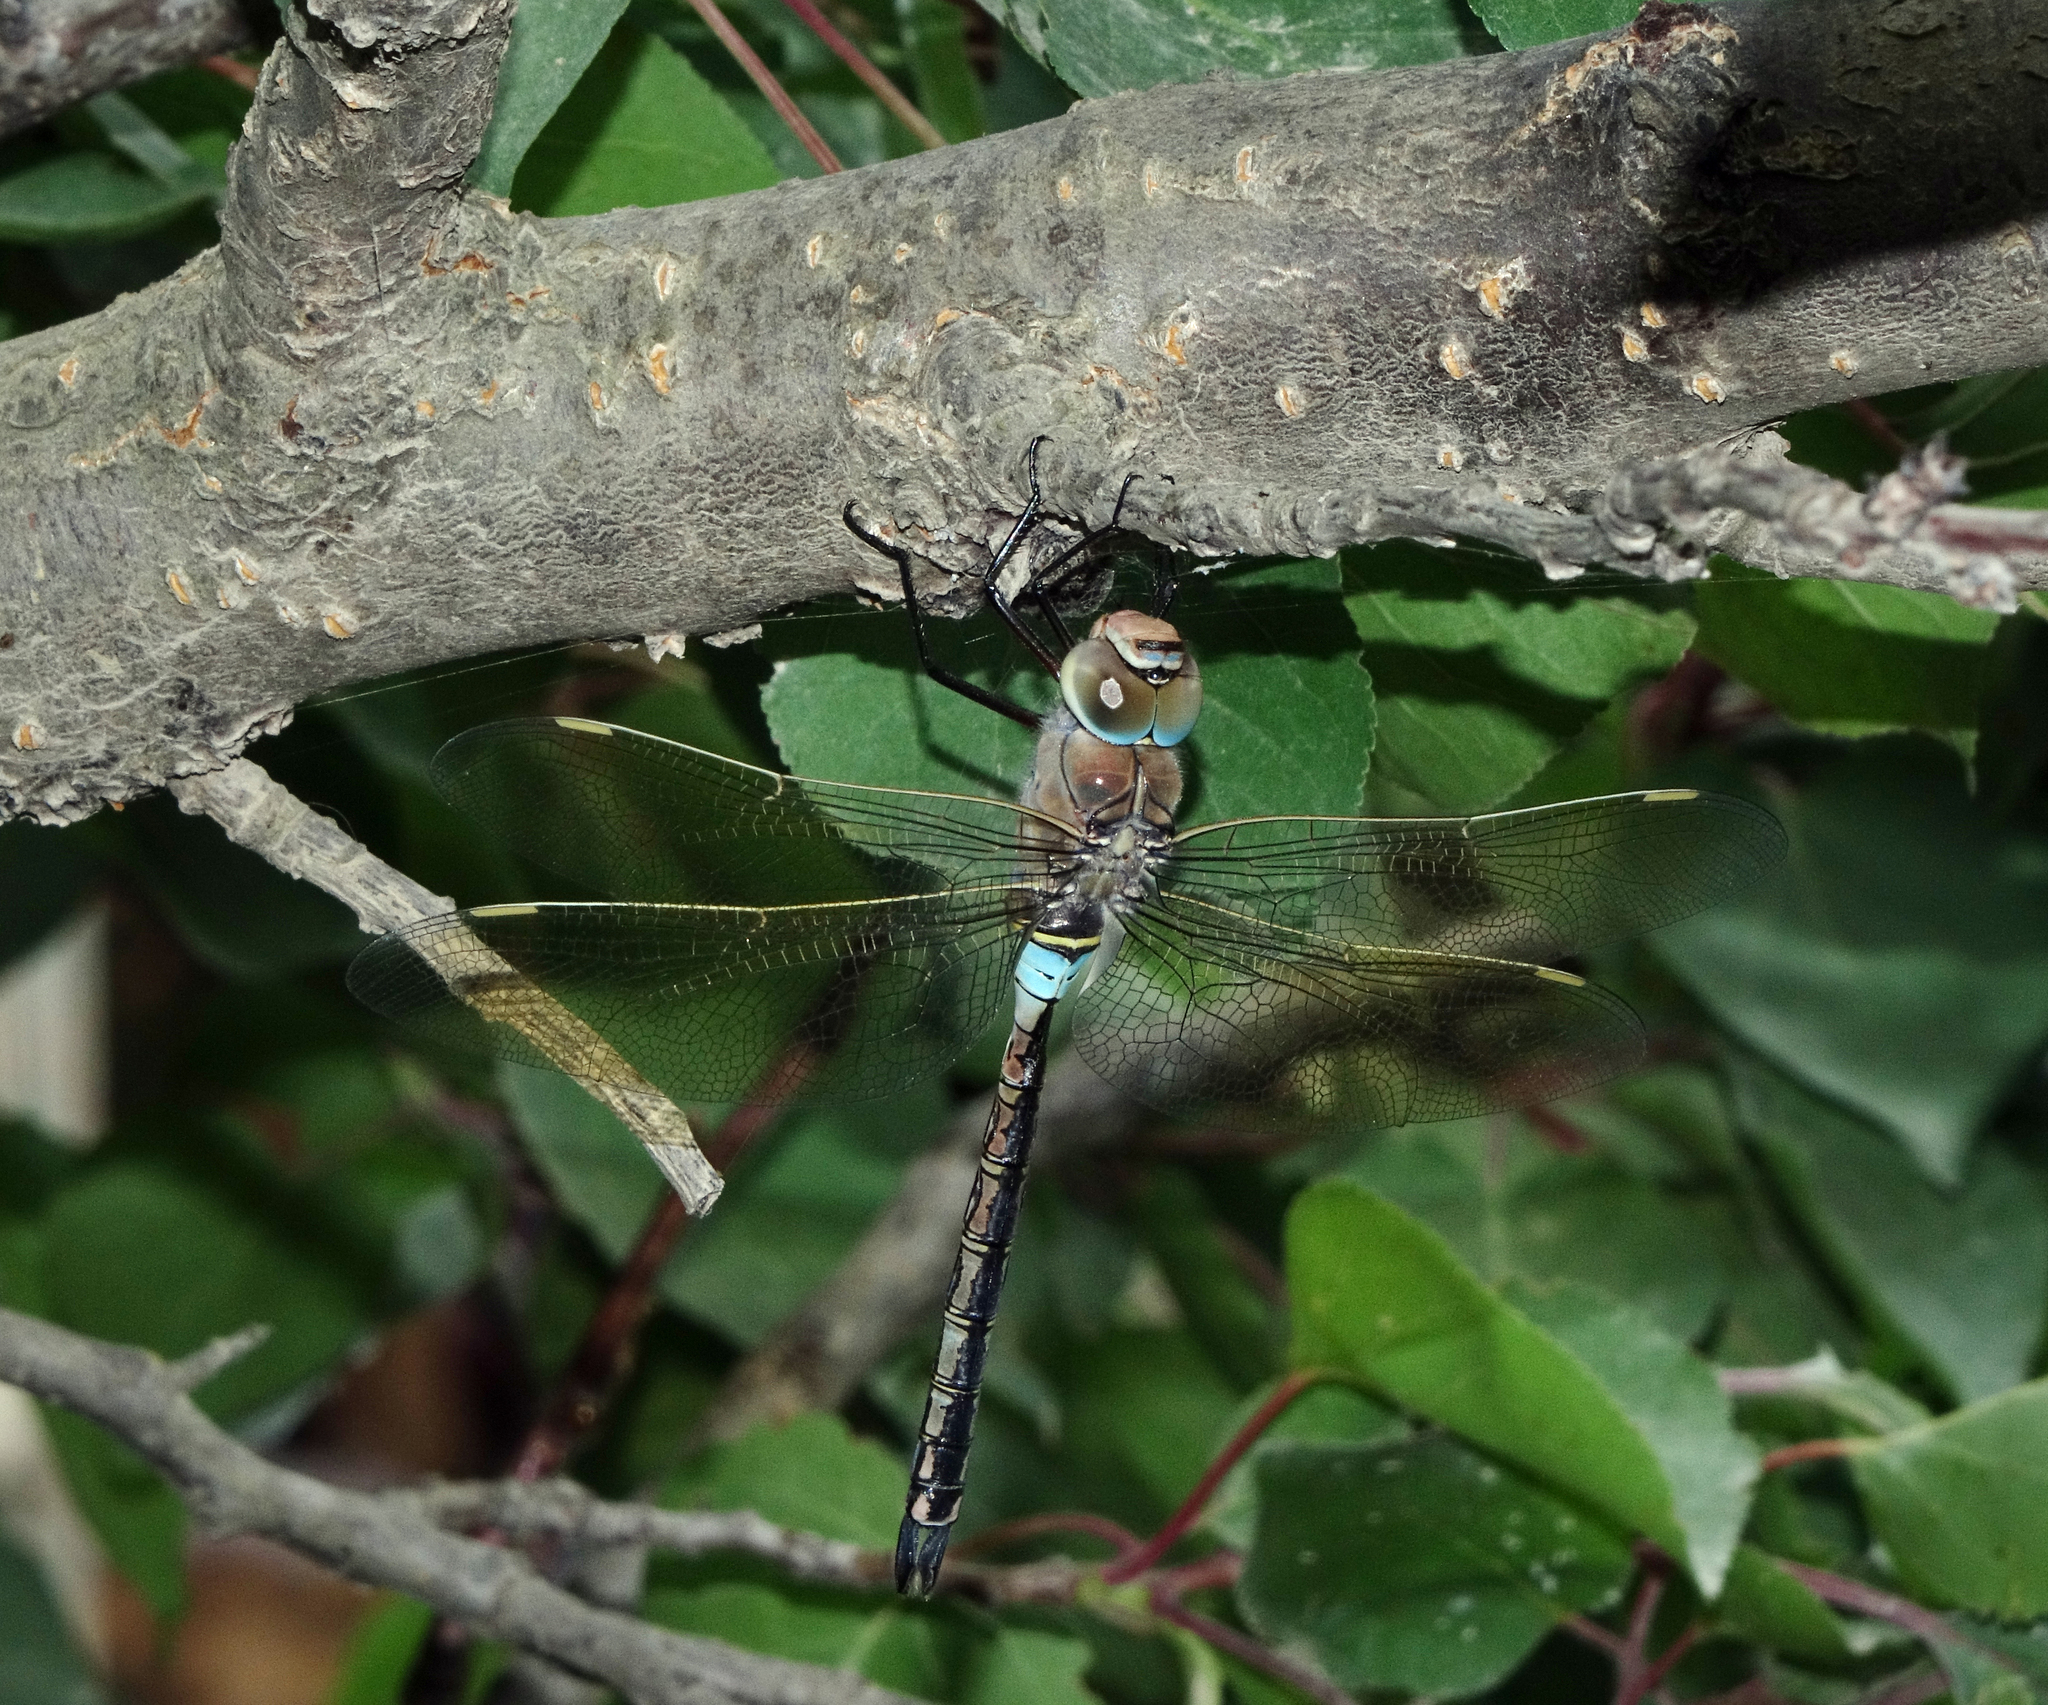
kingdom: Animalia
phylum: Arthropoda
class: Insecta
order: Odonata
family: Aeshnidae
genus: Anax
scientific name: Anax parthenope
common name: Lesser emperor
